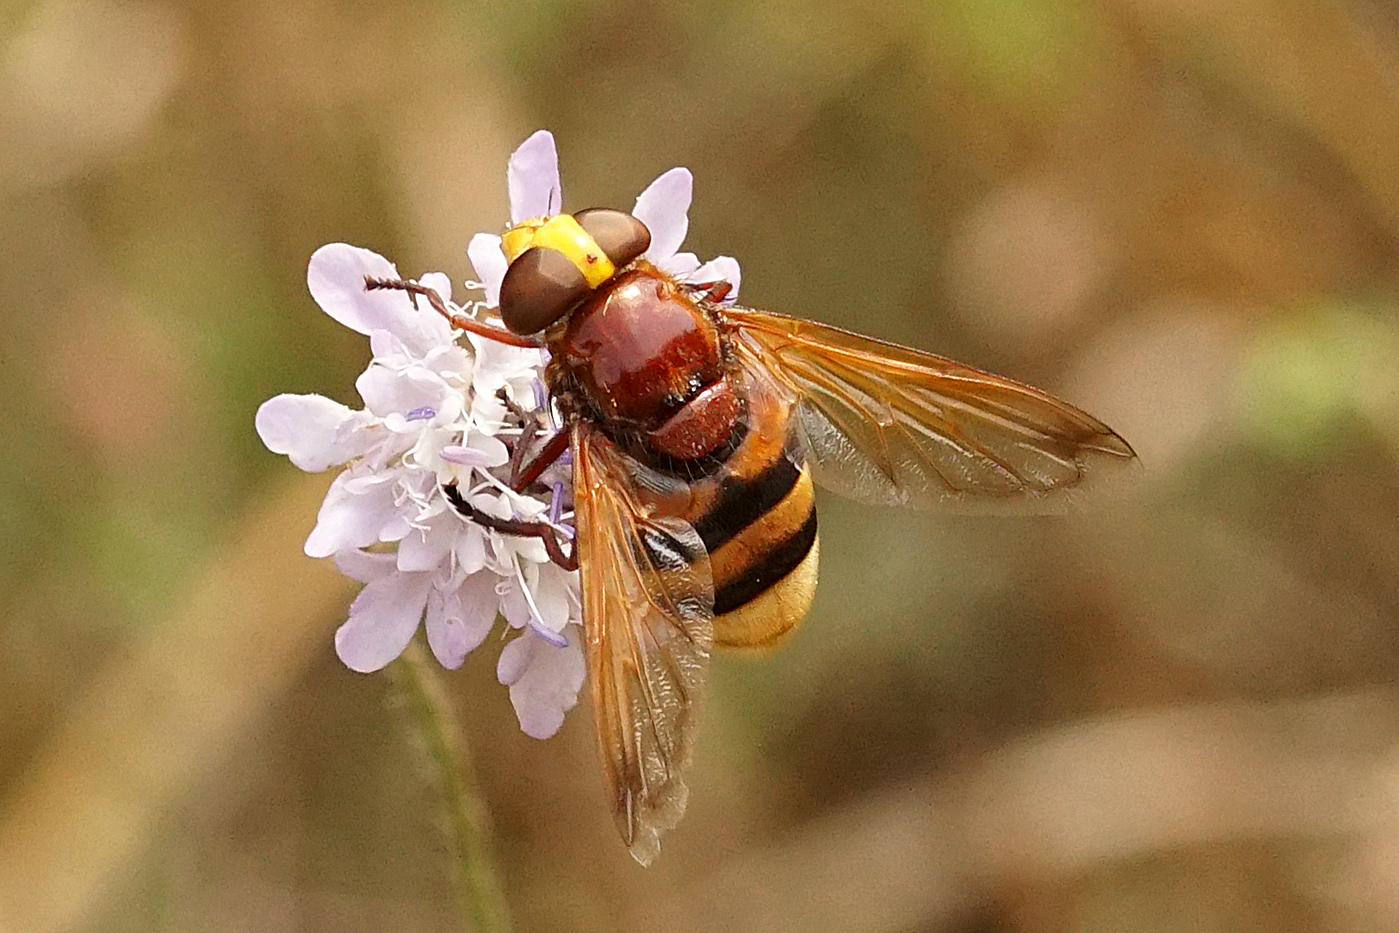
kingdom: Animalia
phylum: Arthropoda
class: Insecta
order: Diptera
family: Syrphidae
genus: Volucella
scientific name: Volucella zonaria
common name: Hornet hoverfly
